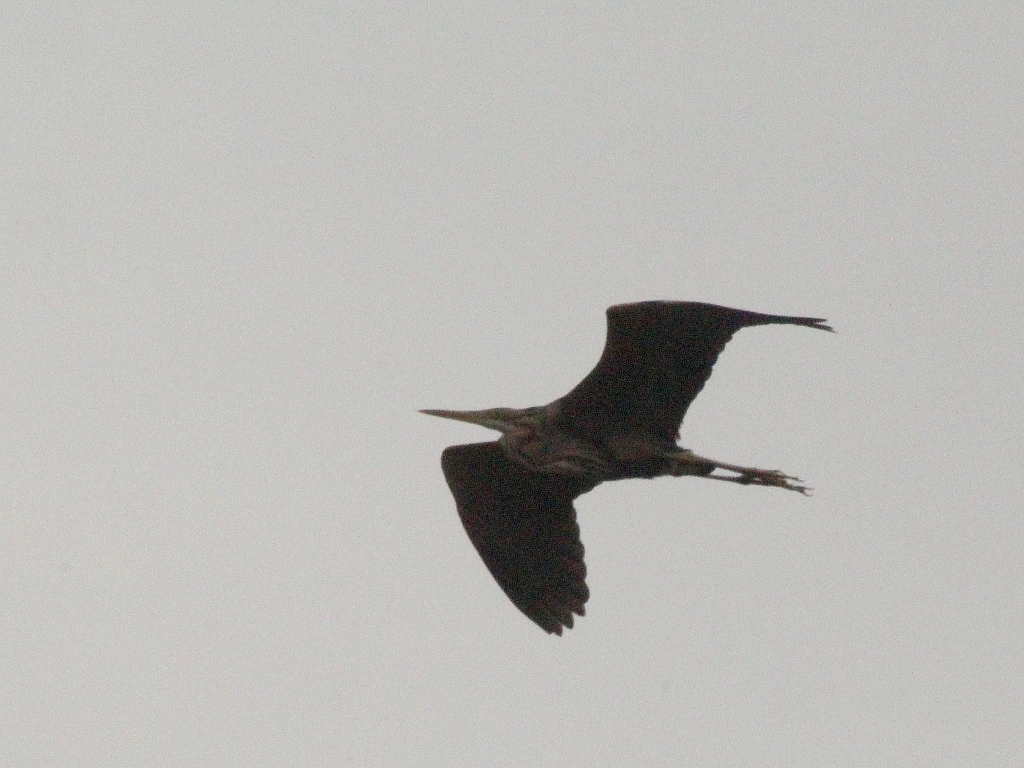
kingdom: Animalia
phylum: Chordata
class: Aves
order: Pelecaniformes
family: Ardeidae
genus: Ardea
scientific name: Ardea purpurea
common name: Purple heron
